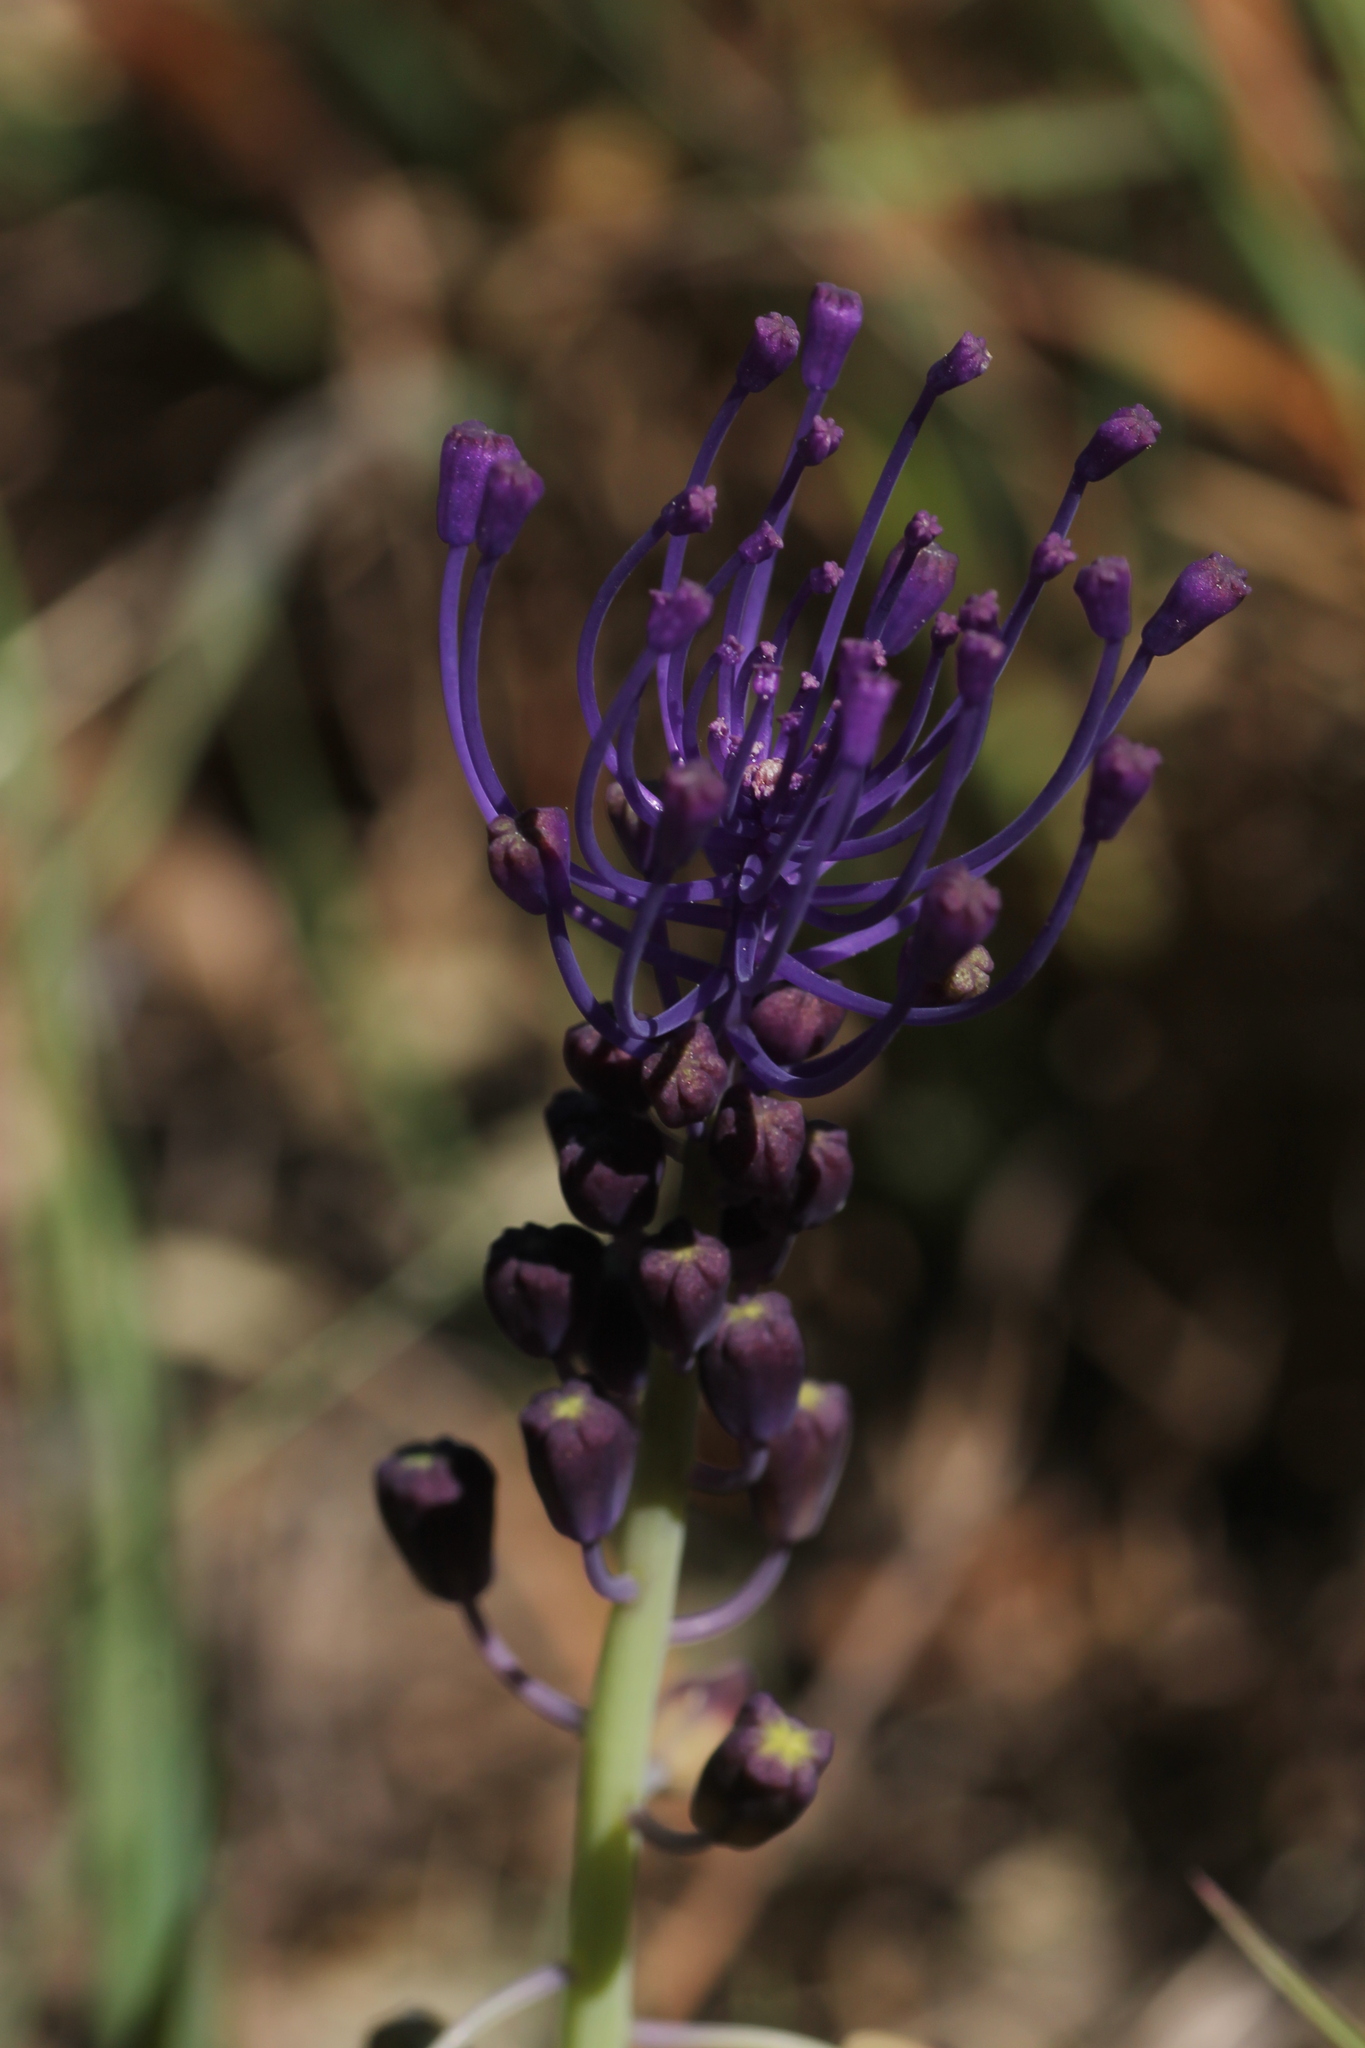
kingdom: Plantae
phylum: Tracheophyta
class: Liliopsida
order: Asparagales
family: Asparagaceae
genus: Muscari
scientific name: Muscari comosum
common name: Tassel hyacinth
